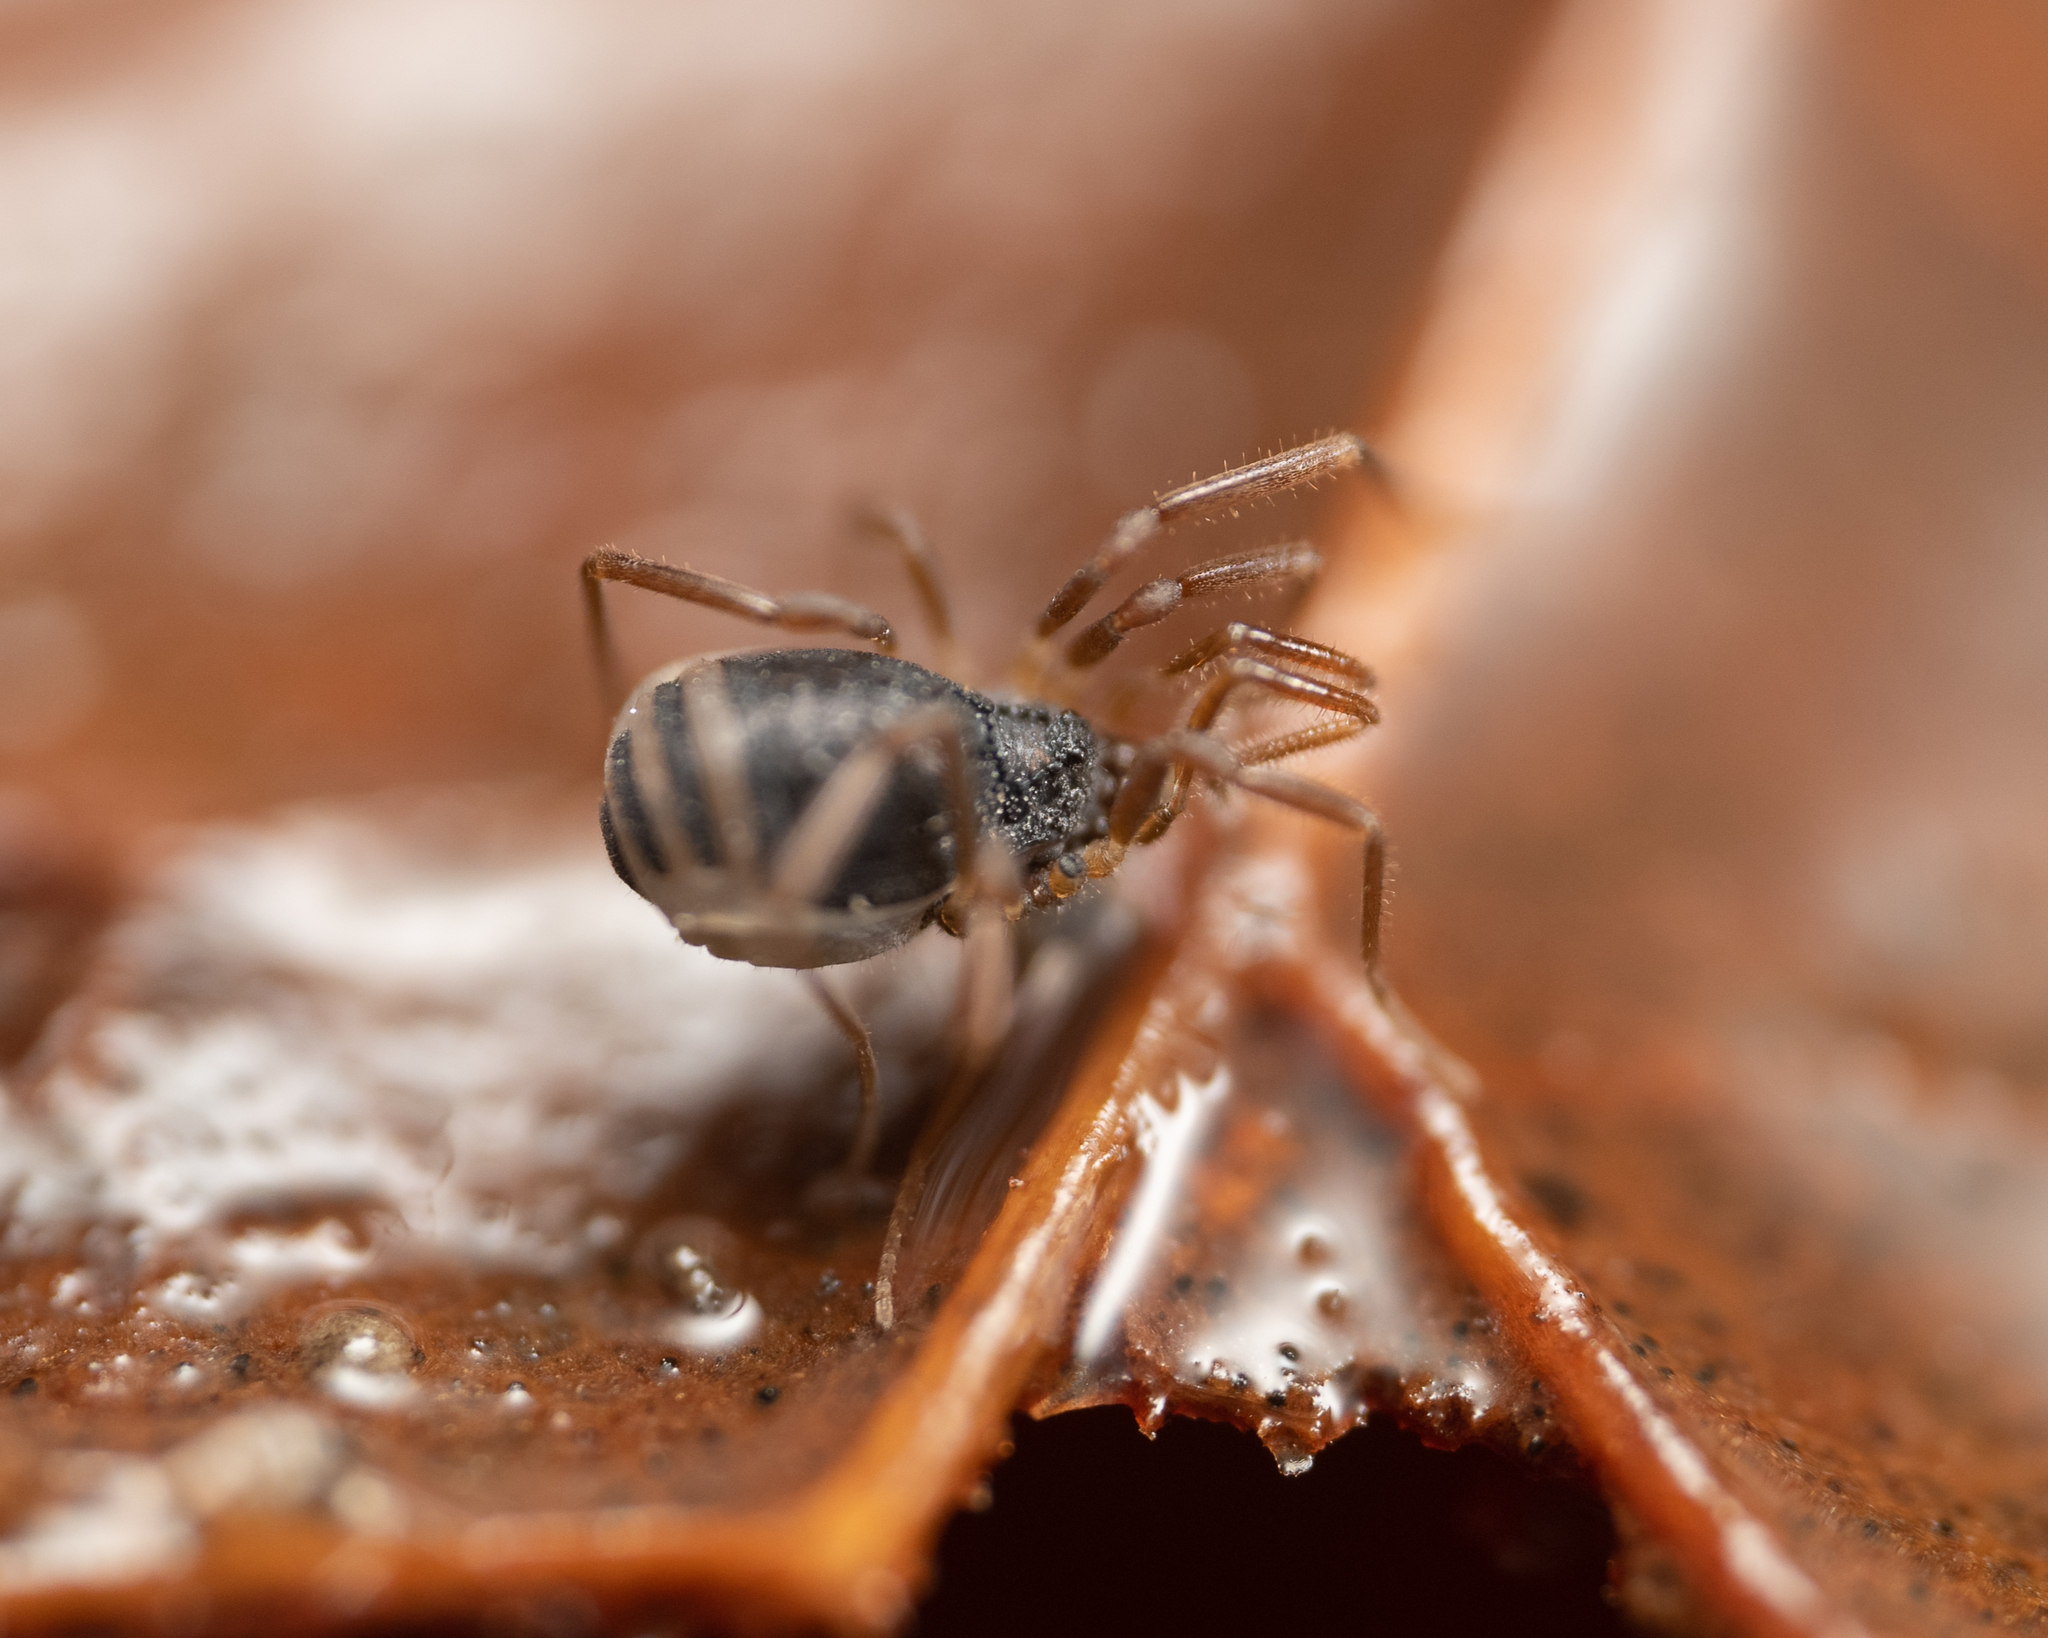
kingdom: Animalia
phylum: Arthropoda
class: Arachnida
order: Opiliones
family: Taracidae
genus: Hesperonemastoma
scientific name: Hesperonemastoma modestum
